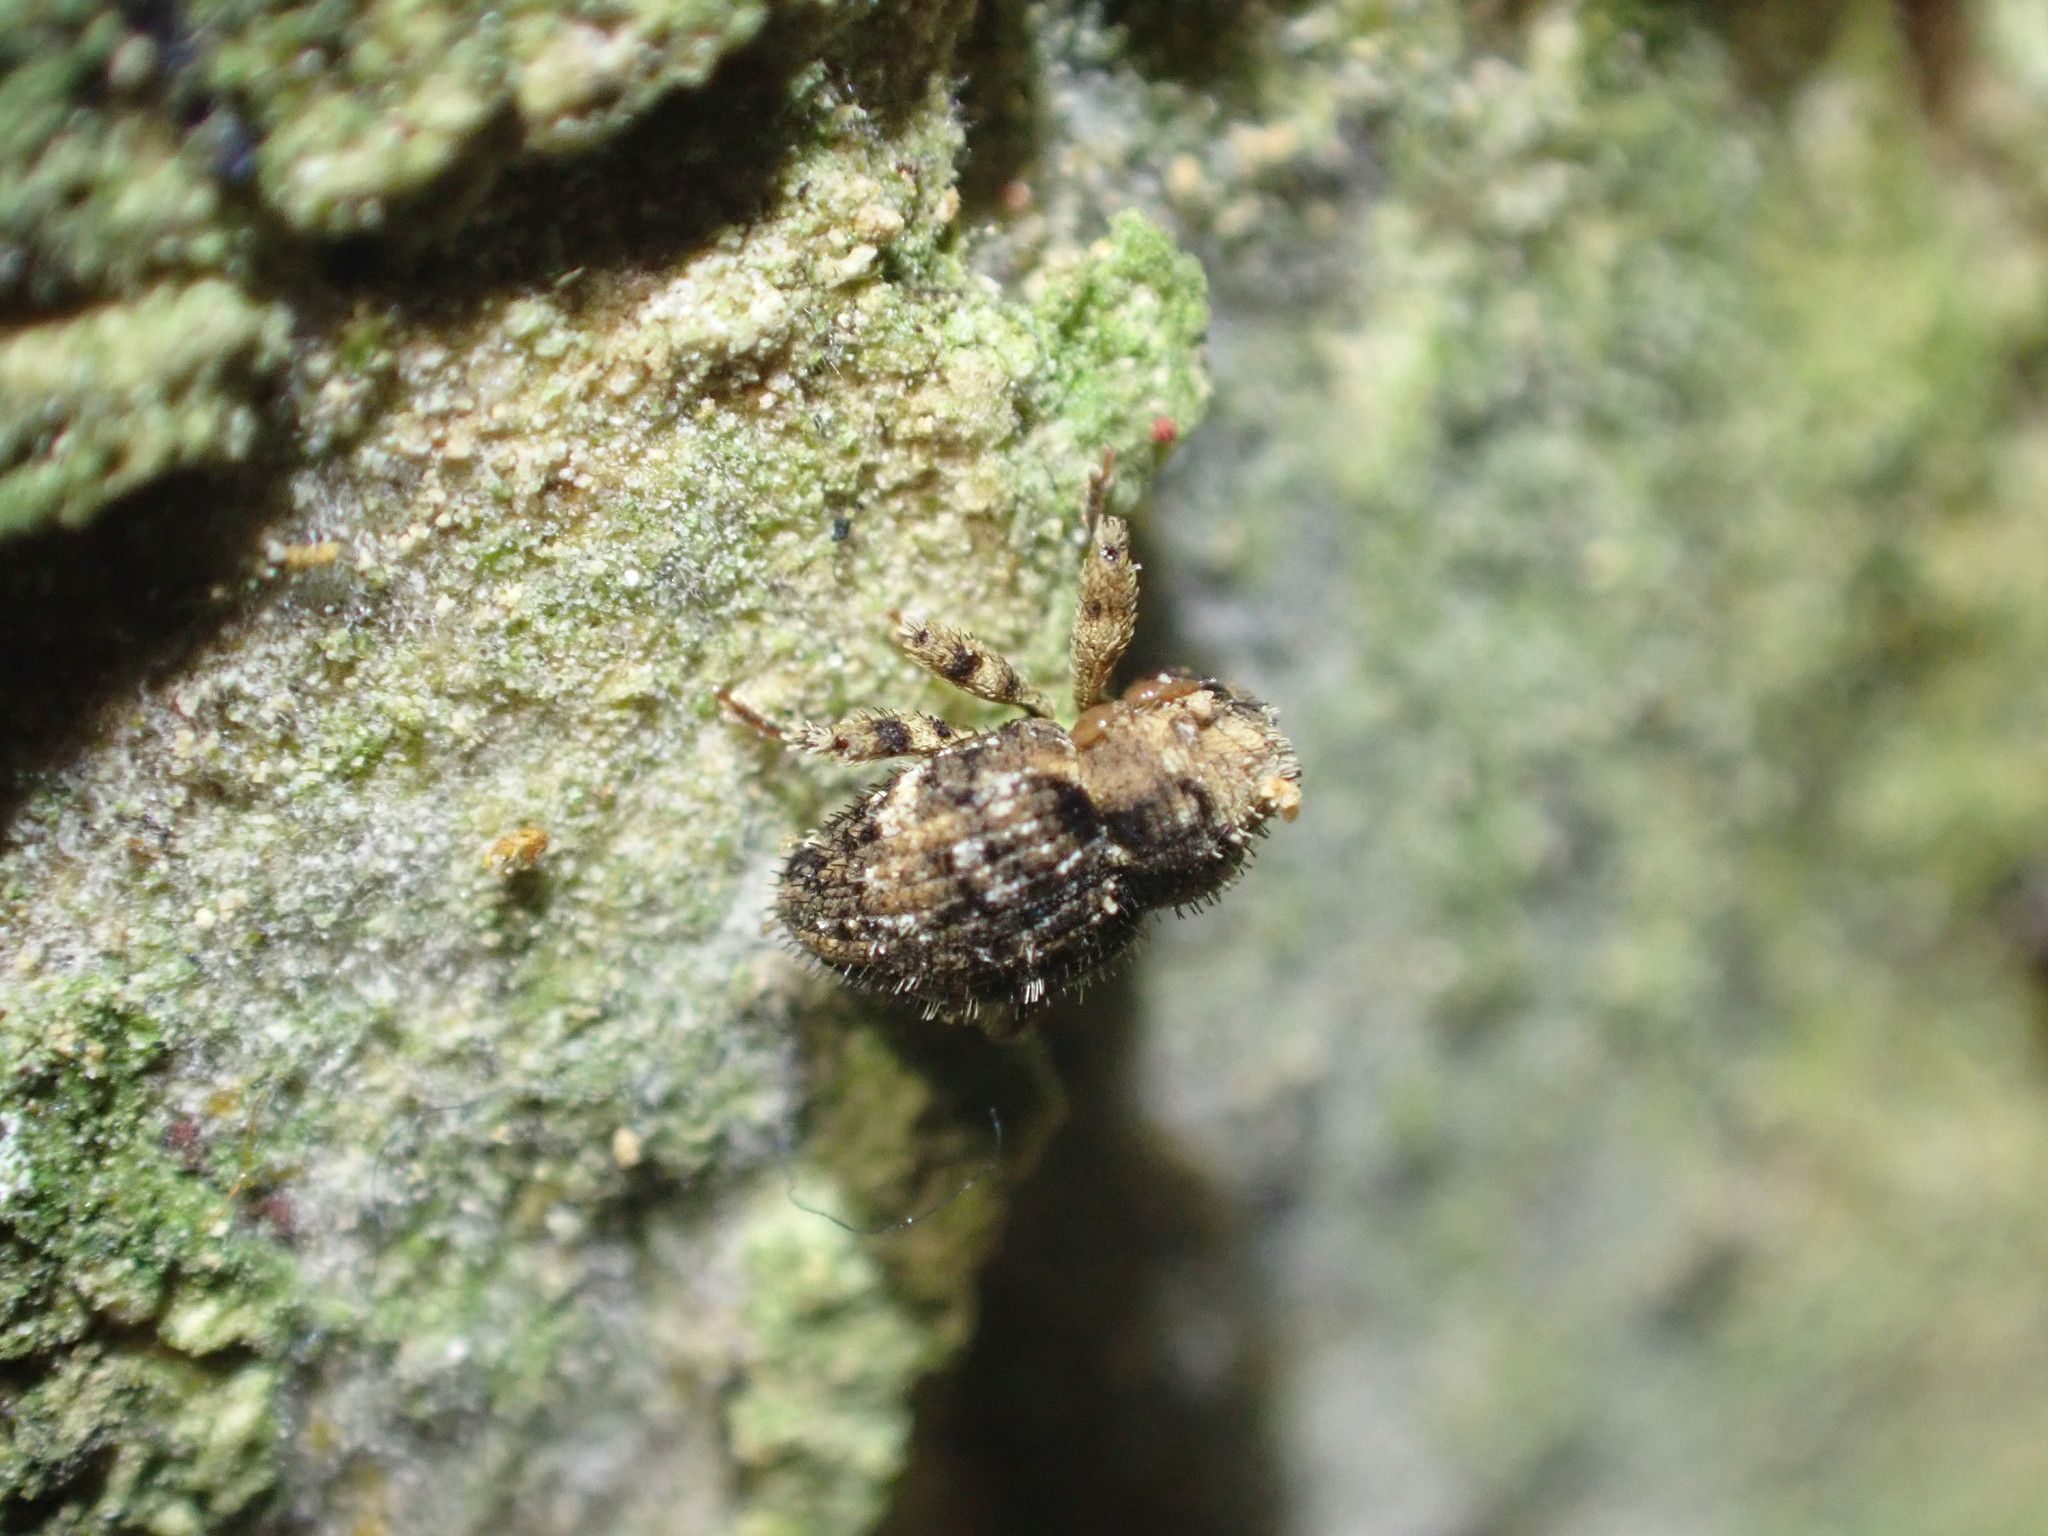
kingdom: Animalia
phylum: Arthropoda
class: Insecta
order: Coleoptera
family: Curculionidae
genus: Omoeacalles
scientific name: Omoeacalles crisioides
